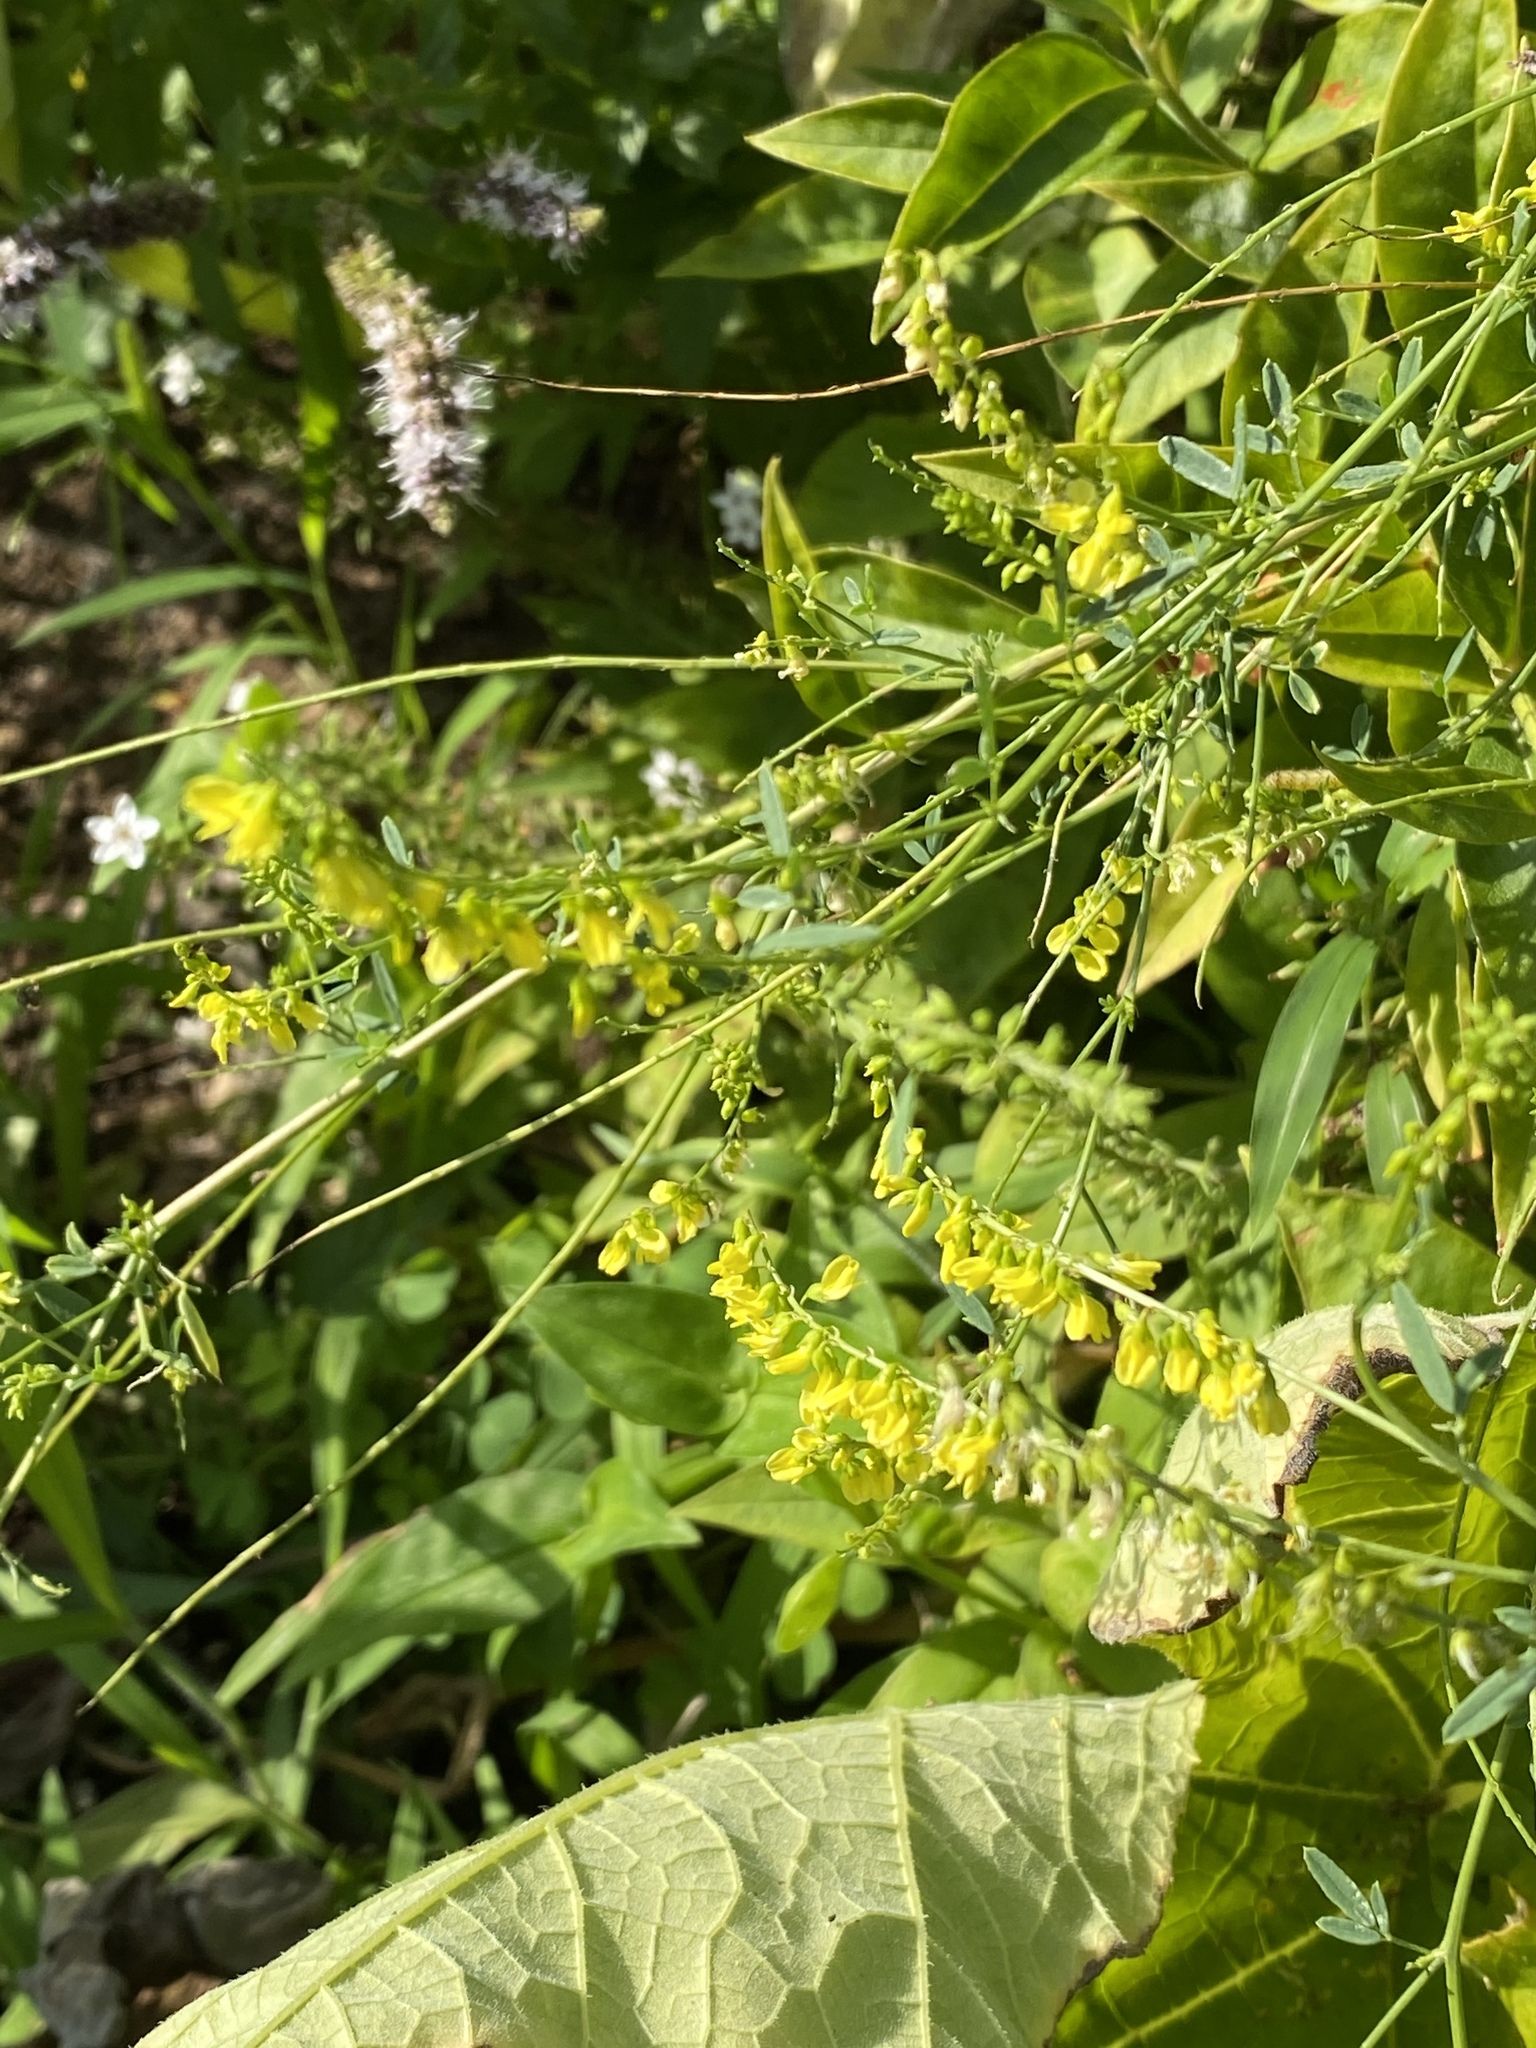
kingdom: Plantae
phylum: Tracheophyta
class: Magnoliopsida
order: Fabales
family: Fabaceae
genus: Melilotus
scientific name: Melilotus officinalis
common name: Sweetclover
